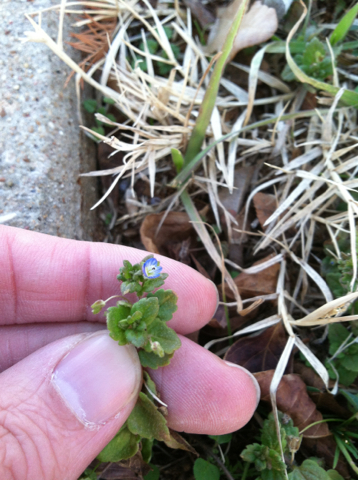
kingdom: Plantae
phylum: Tracheophyta
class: Magnoliopsida
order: Lamiales
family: Plantaginaceae
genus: Veronica
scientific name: Veronica polita
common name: Grey field-speedwell
